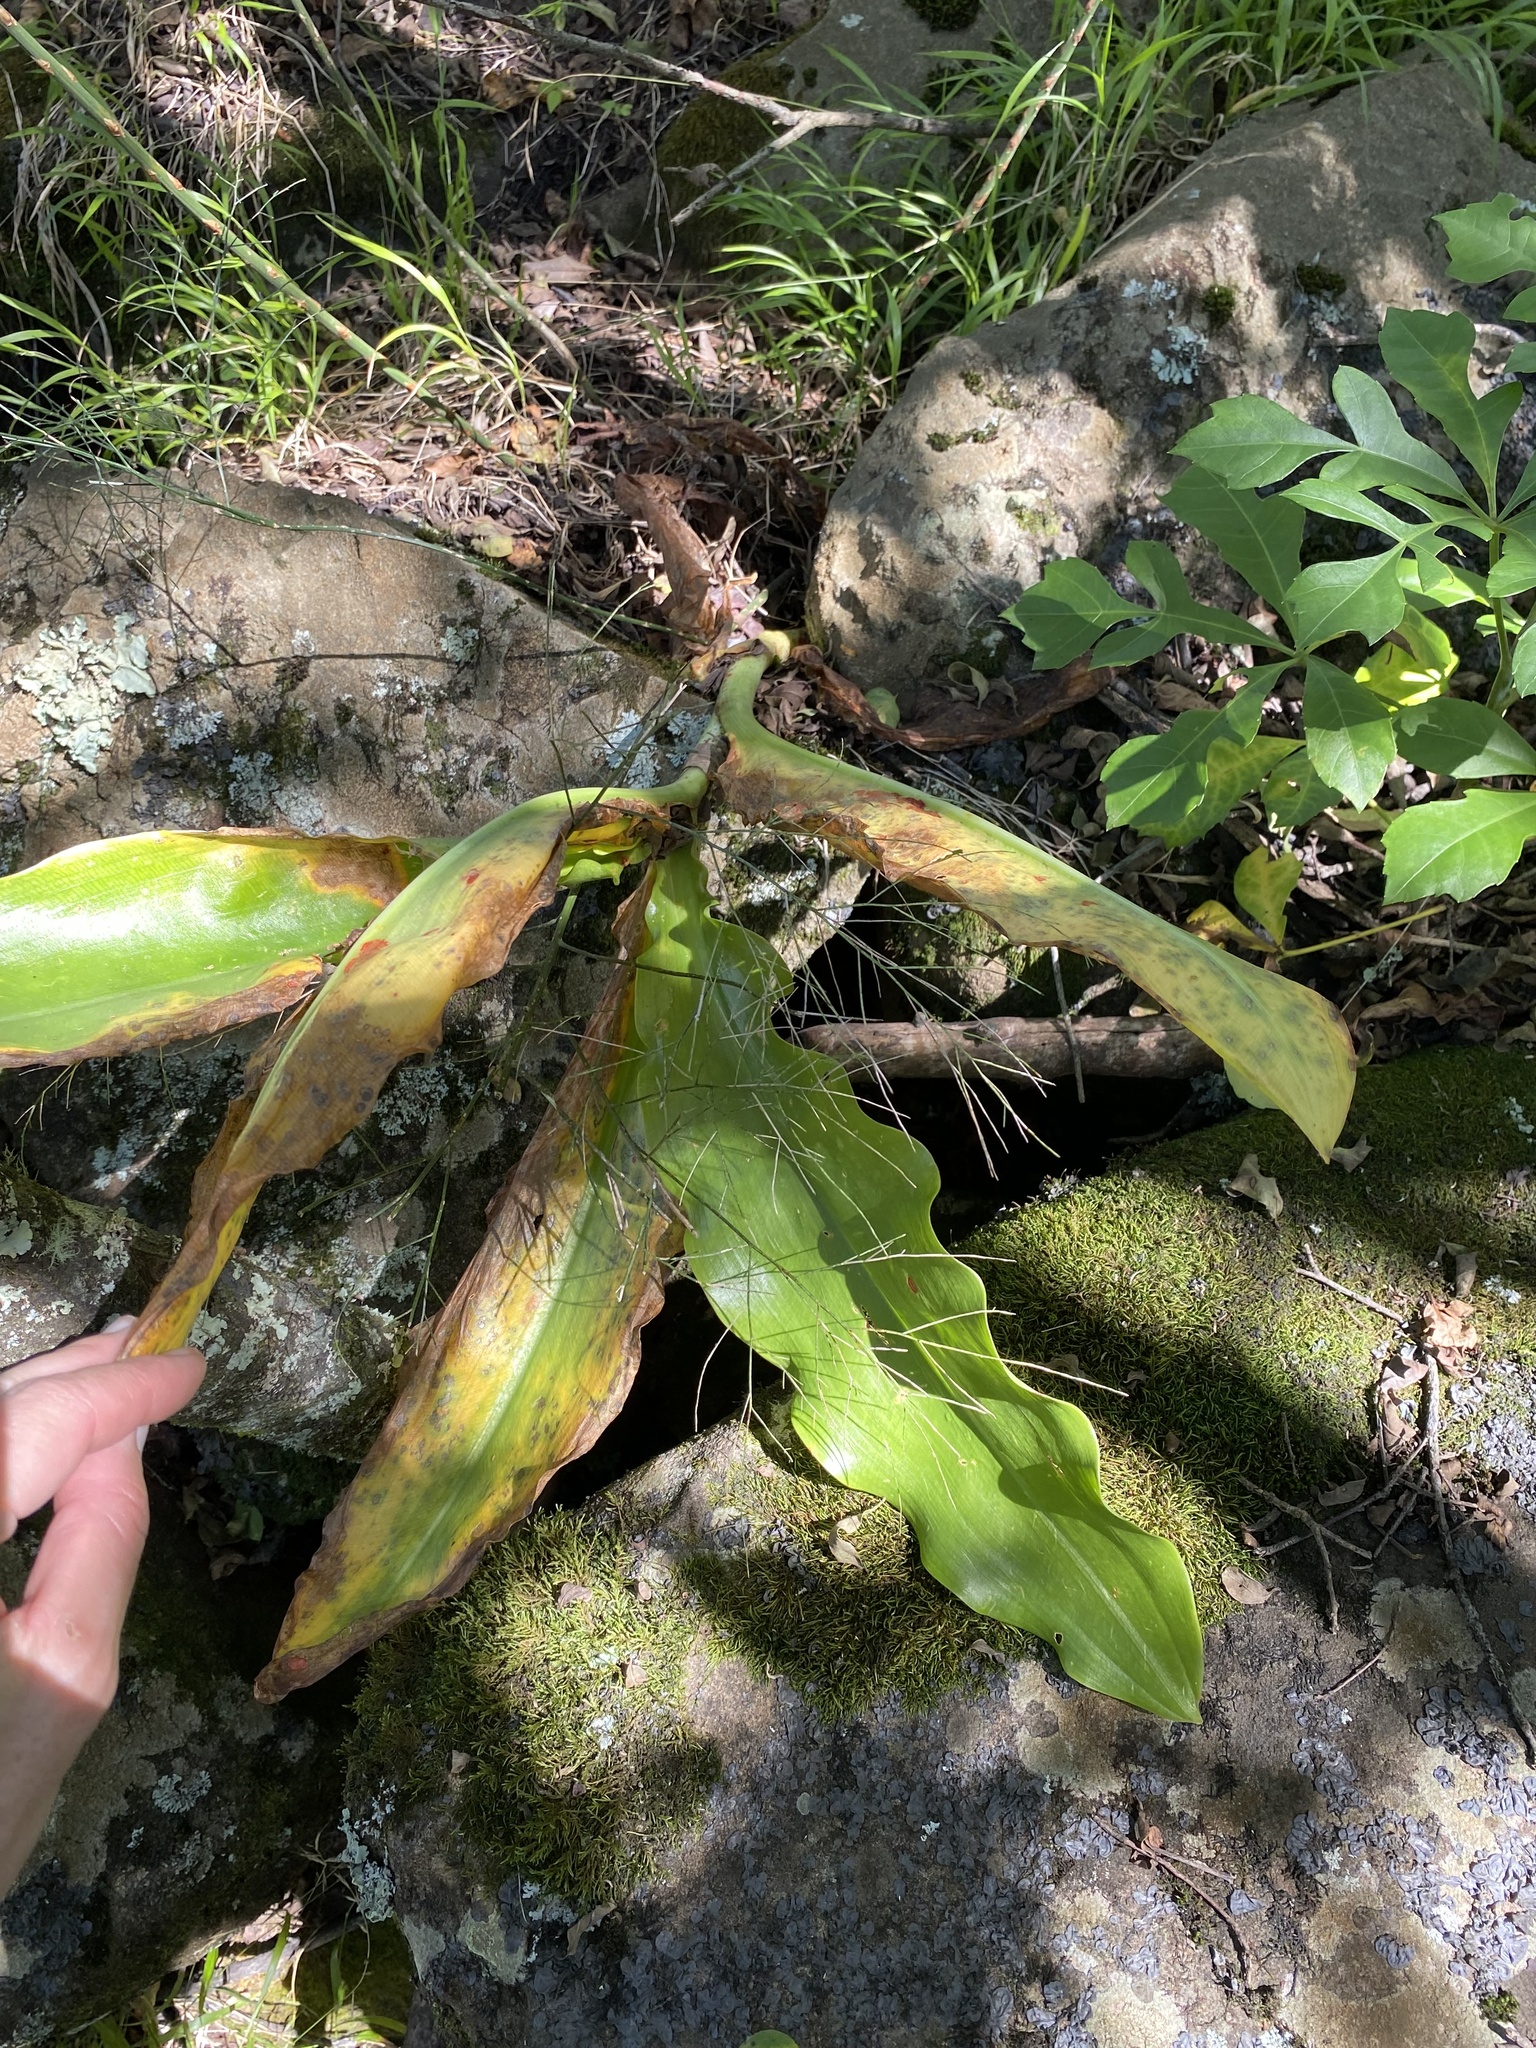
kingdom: Plantae
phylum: Tracheophyta
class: Liliopsida
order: Asparagales
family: Amaryllidaceae
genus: Scadoxus
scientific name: Scadoxus puniceus
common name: Royal-paintbrush
